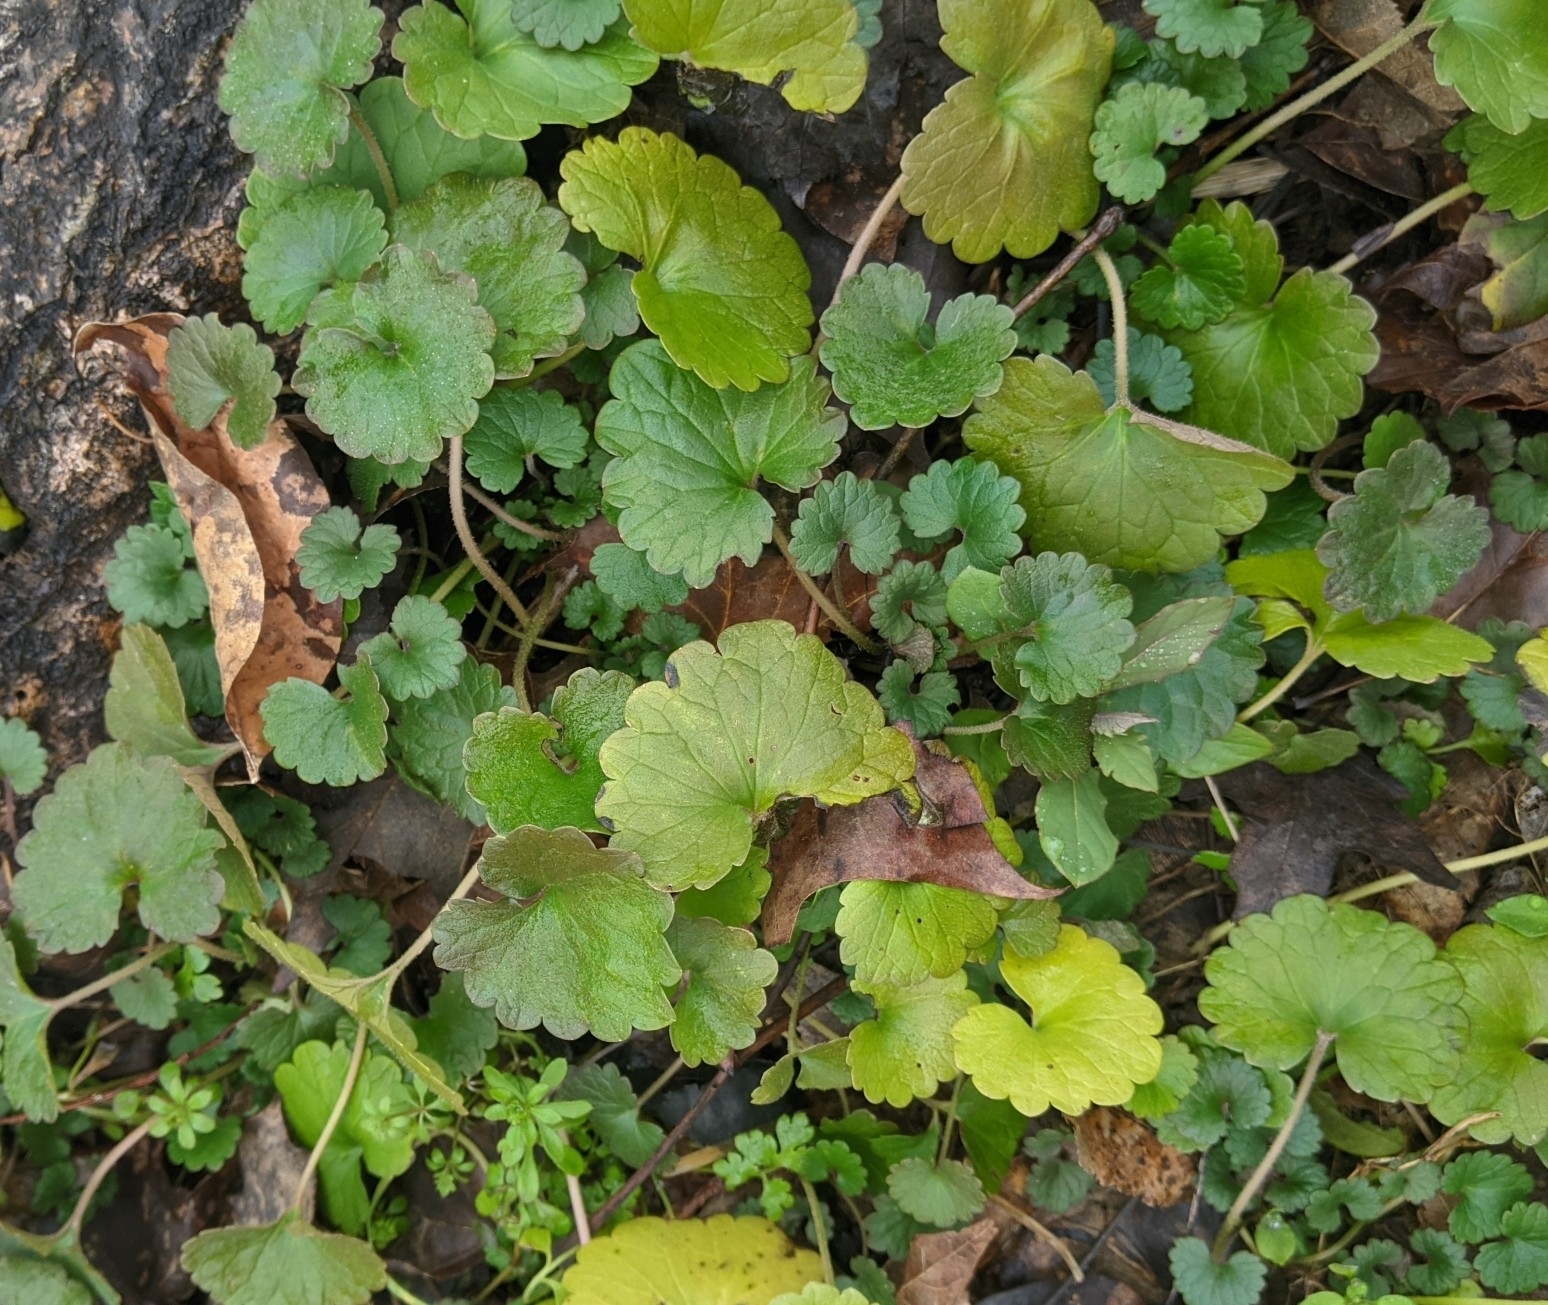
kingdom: Plantae
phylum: Tracheophyta
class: Magnoliopsida
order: Lamiales
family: Lamiaceae
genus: Glechoma
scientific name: Glechoma hederacea
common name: Ground ivy
